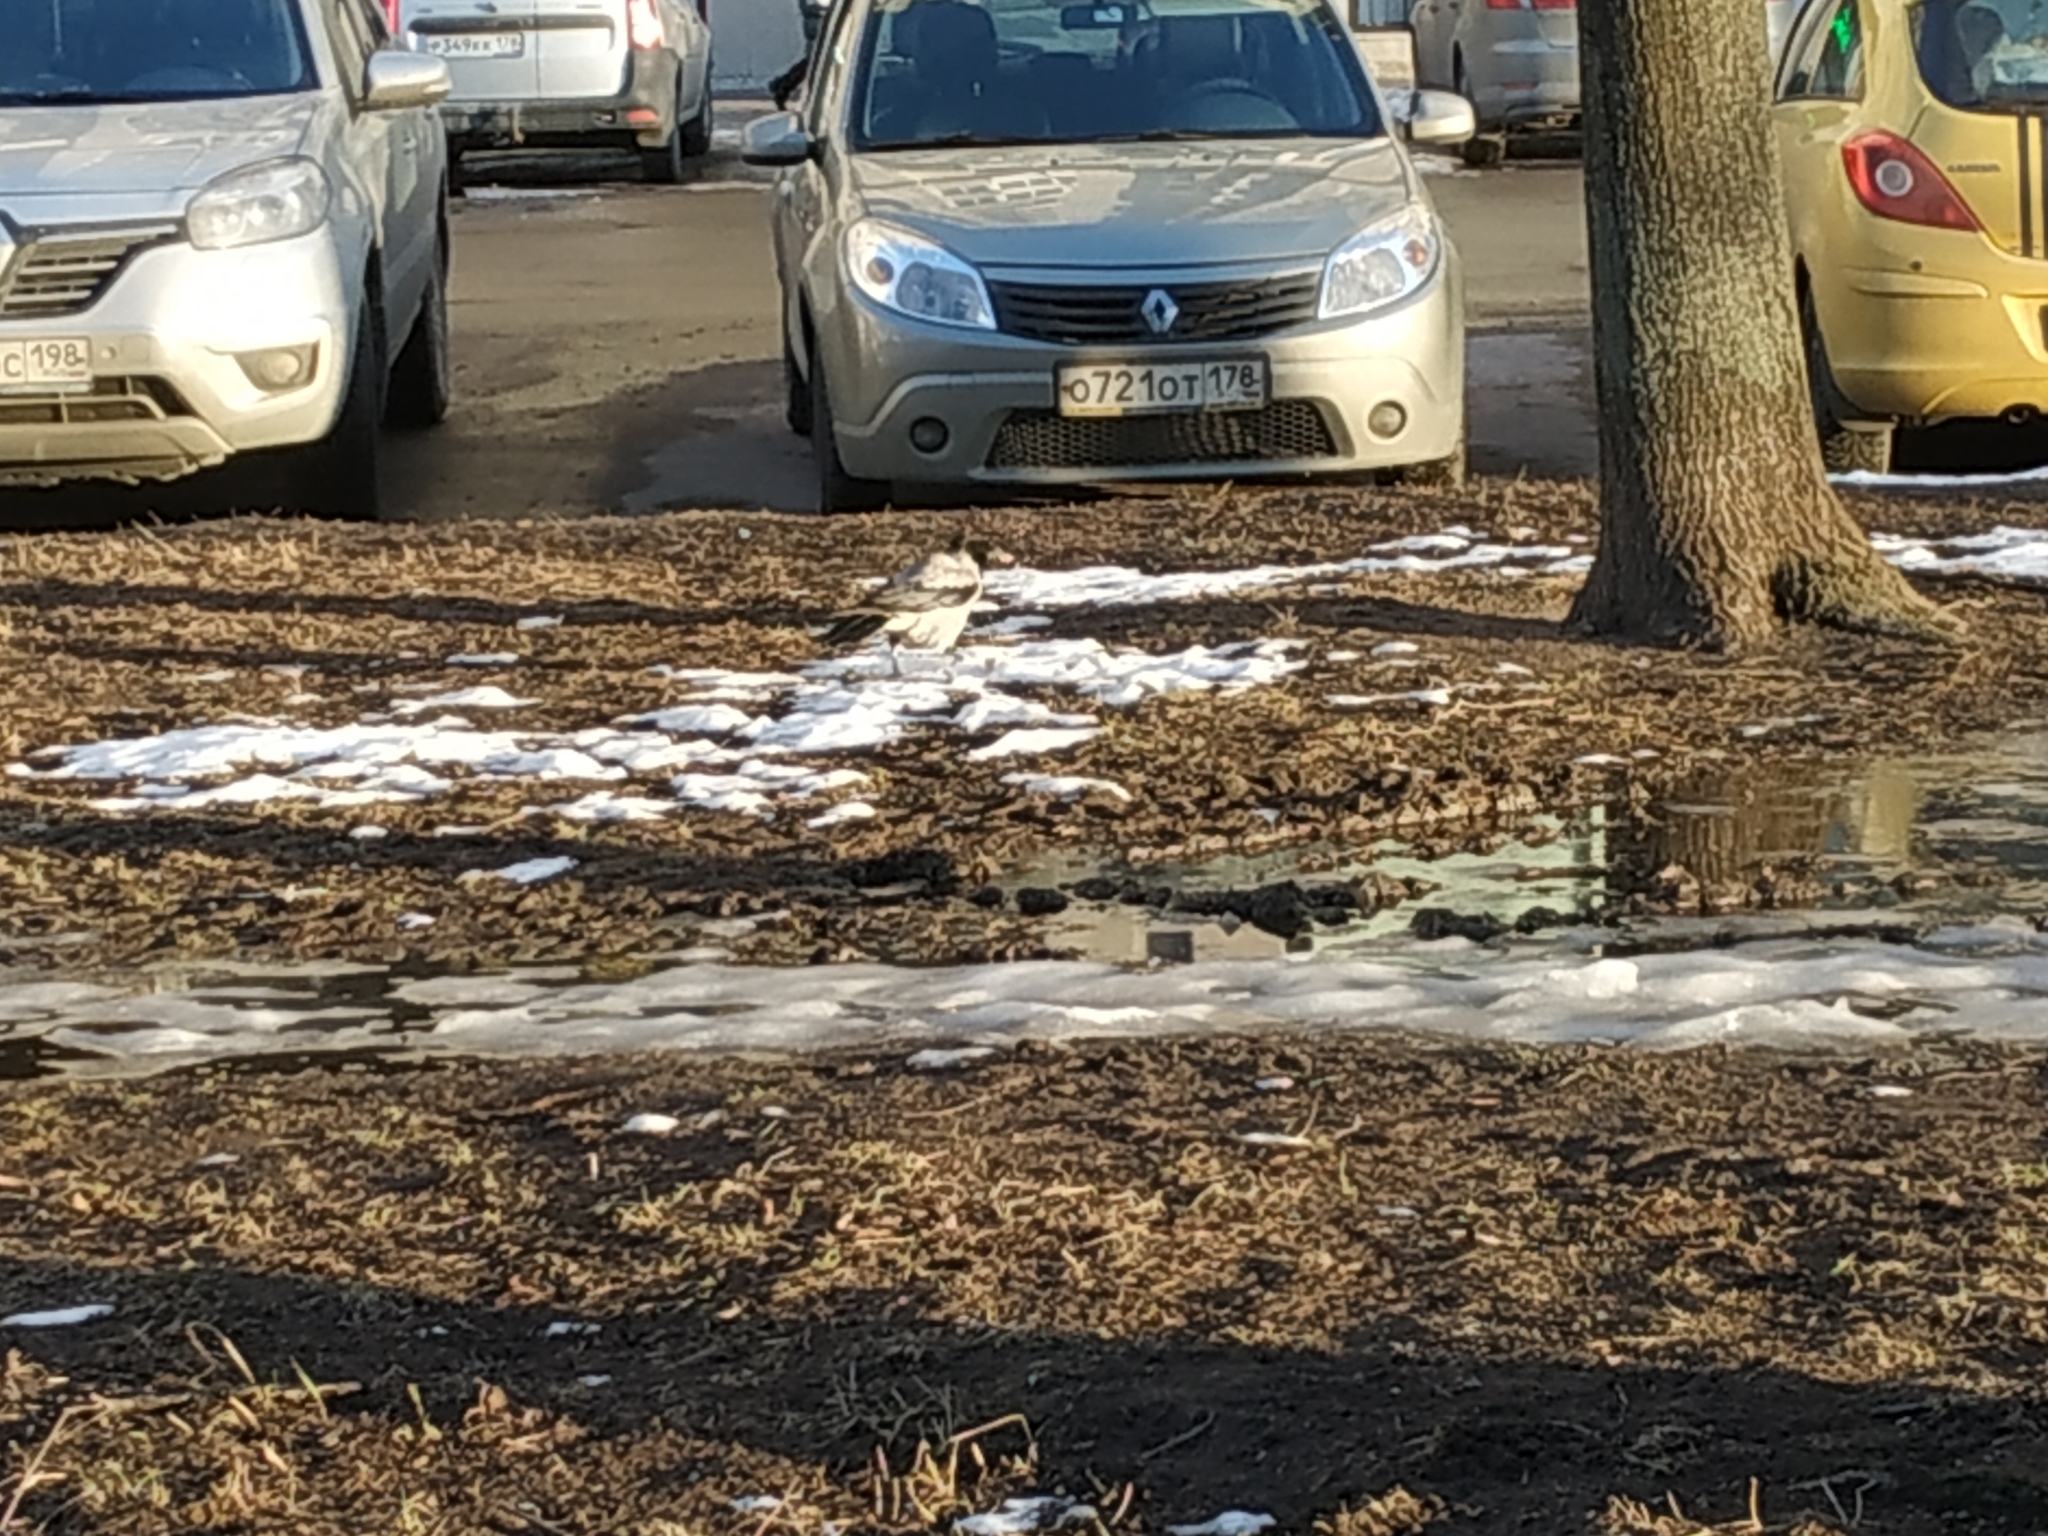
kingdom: Animalia
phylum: Chordata
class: Aves
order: Passeriformes
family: Corvidae
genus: Corvus
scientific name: Corvus cornix
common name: Hooded crow
